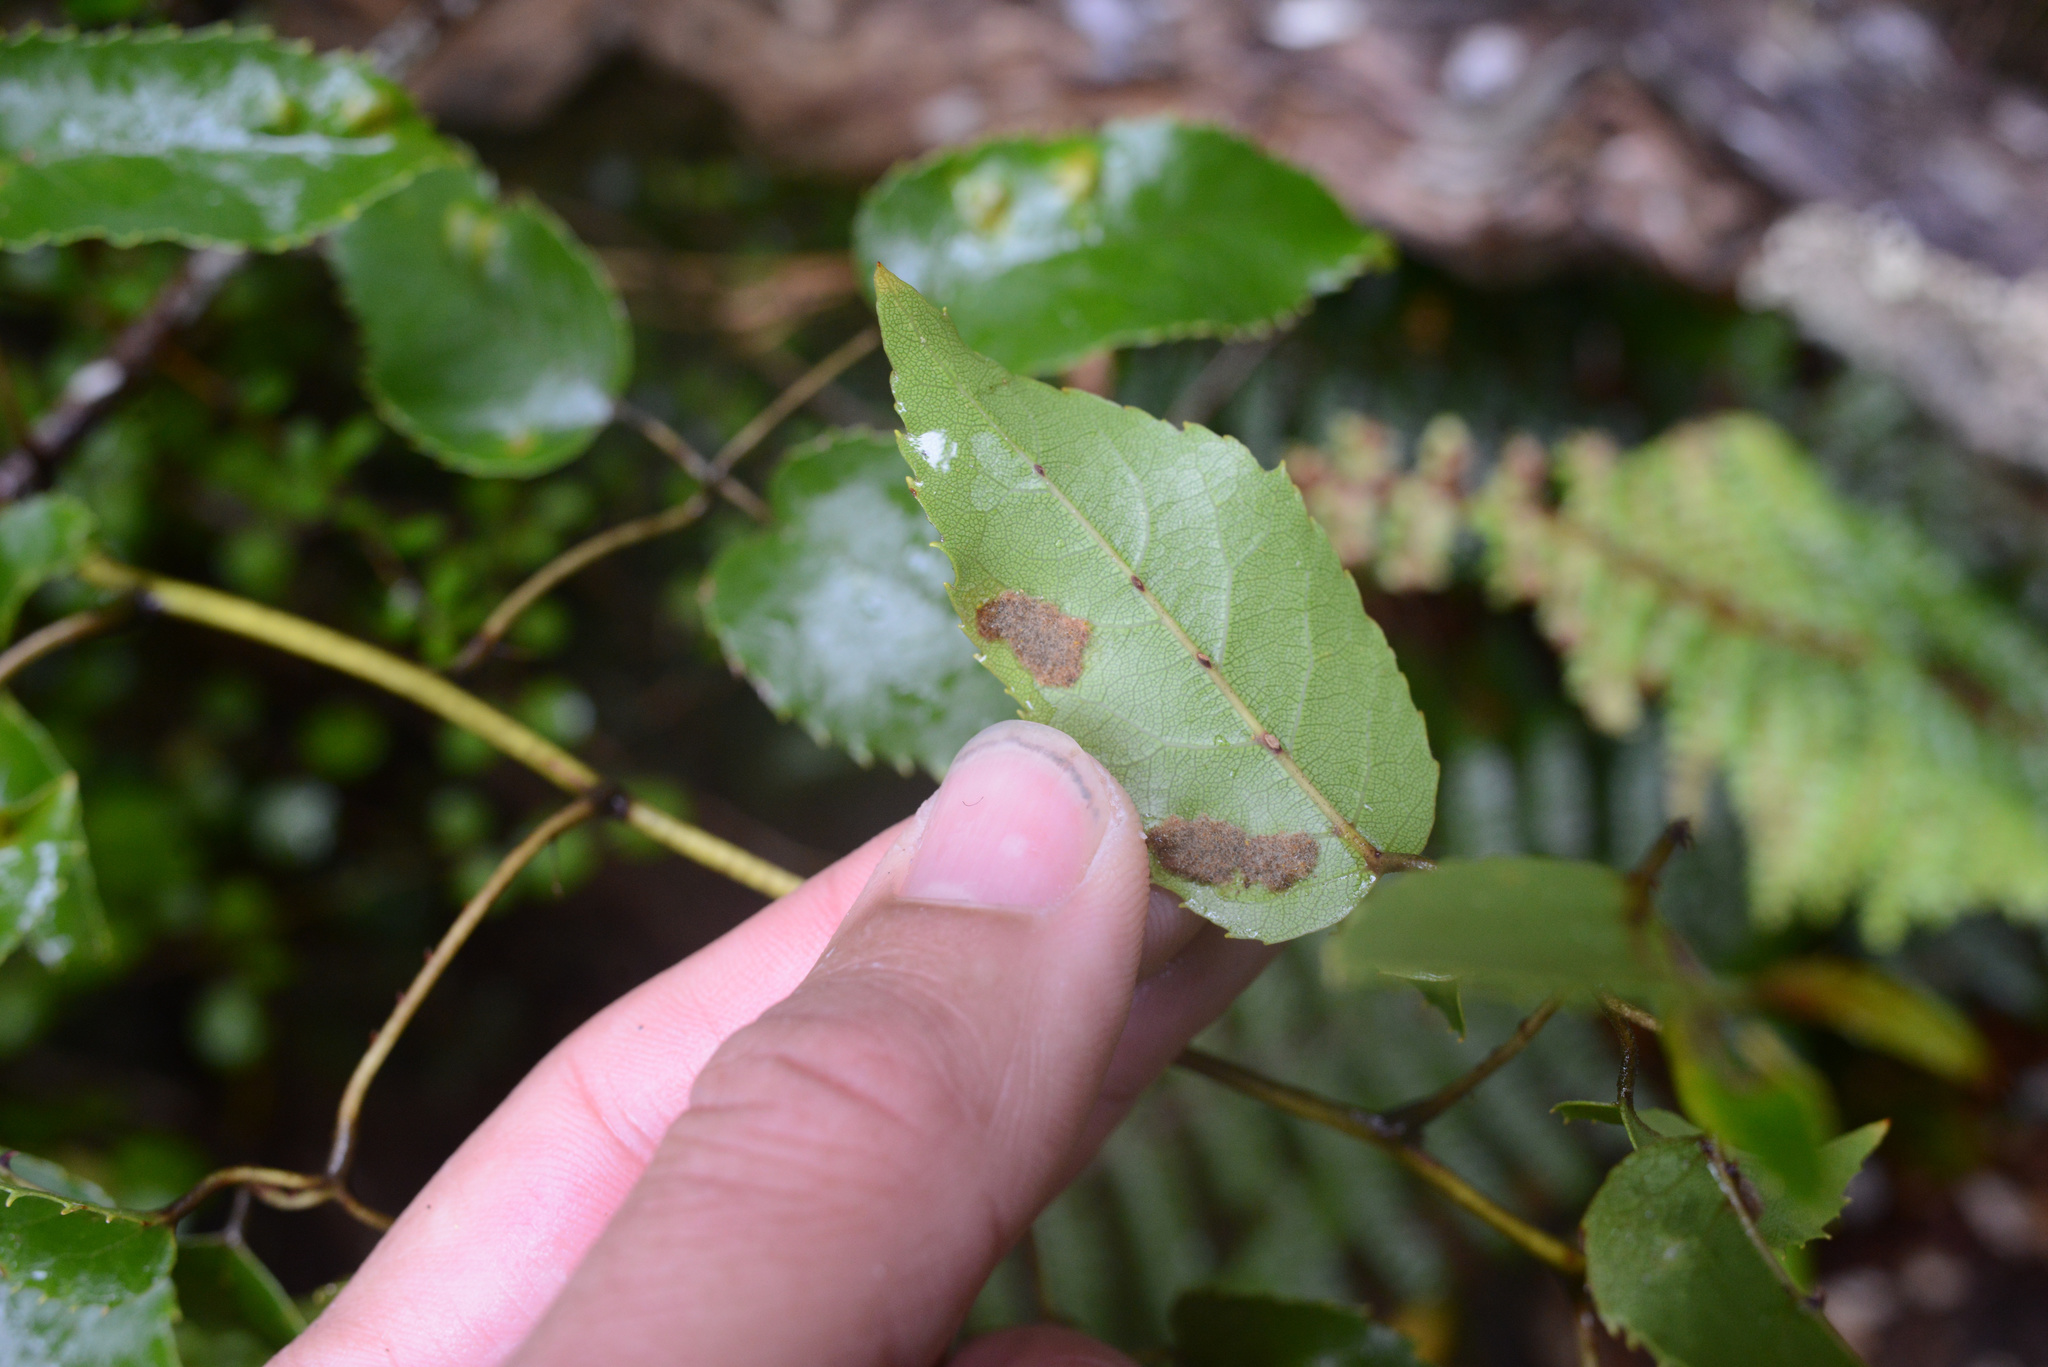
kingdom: Animalia
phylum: Arthropoda
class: Arachnida
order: Trombidiformes
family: Eriophyidae
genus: Acalitus
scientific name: Acalitus
